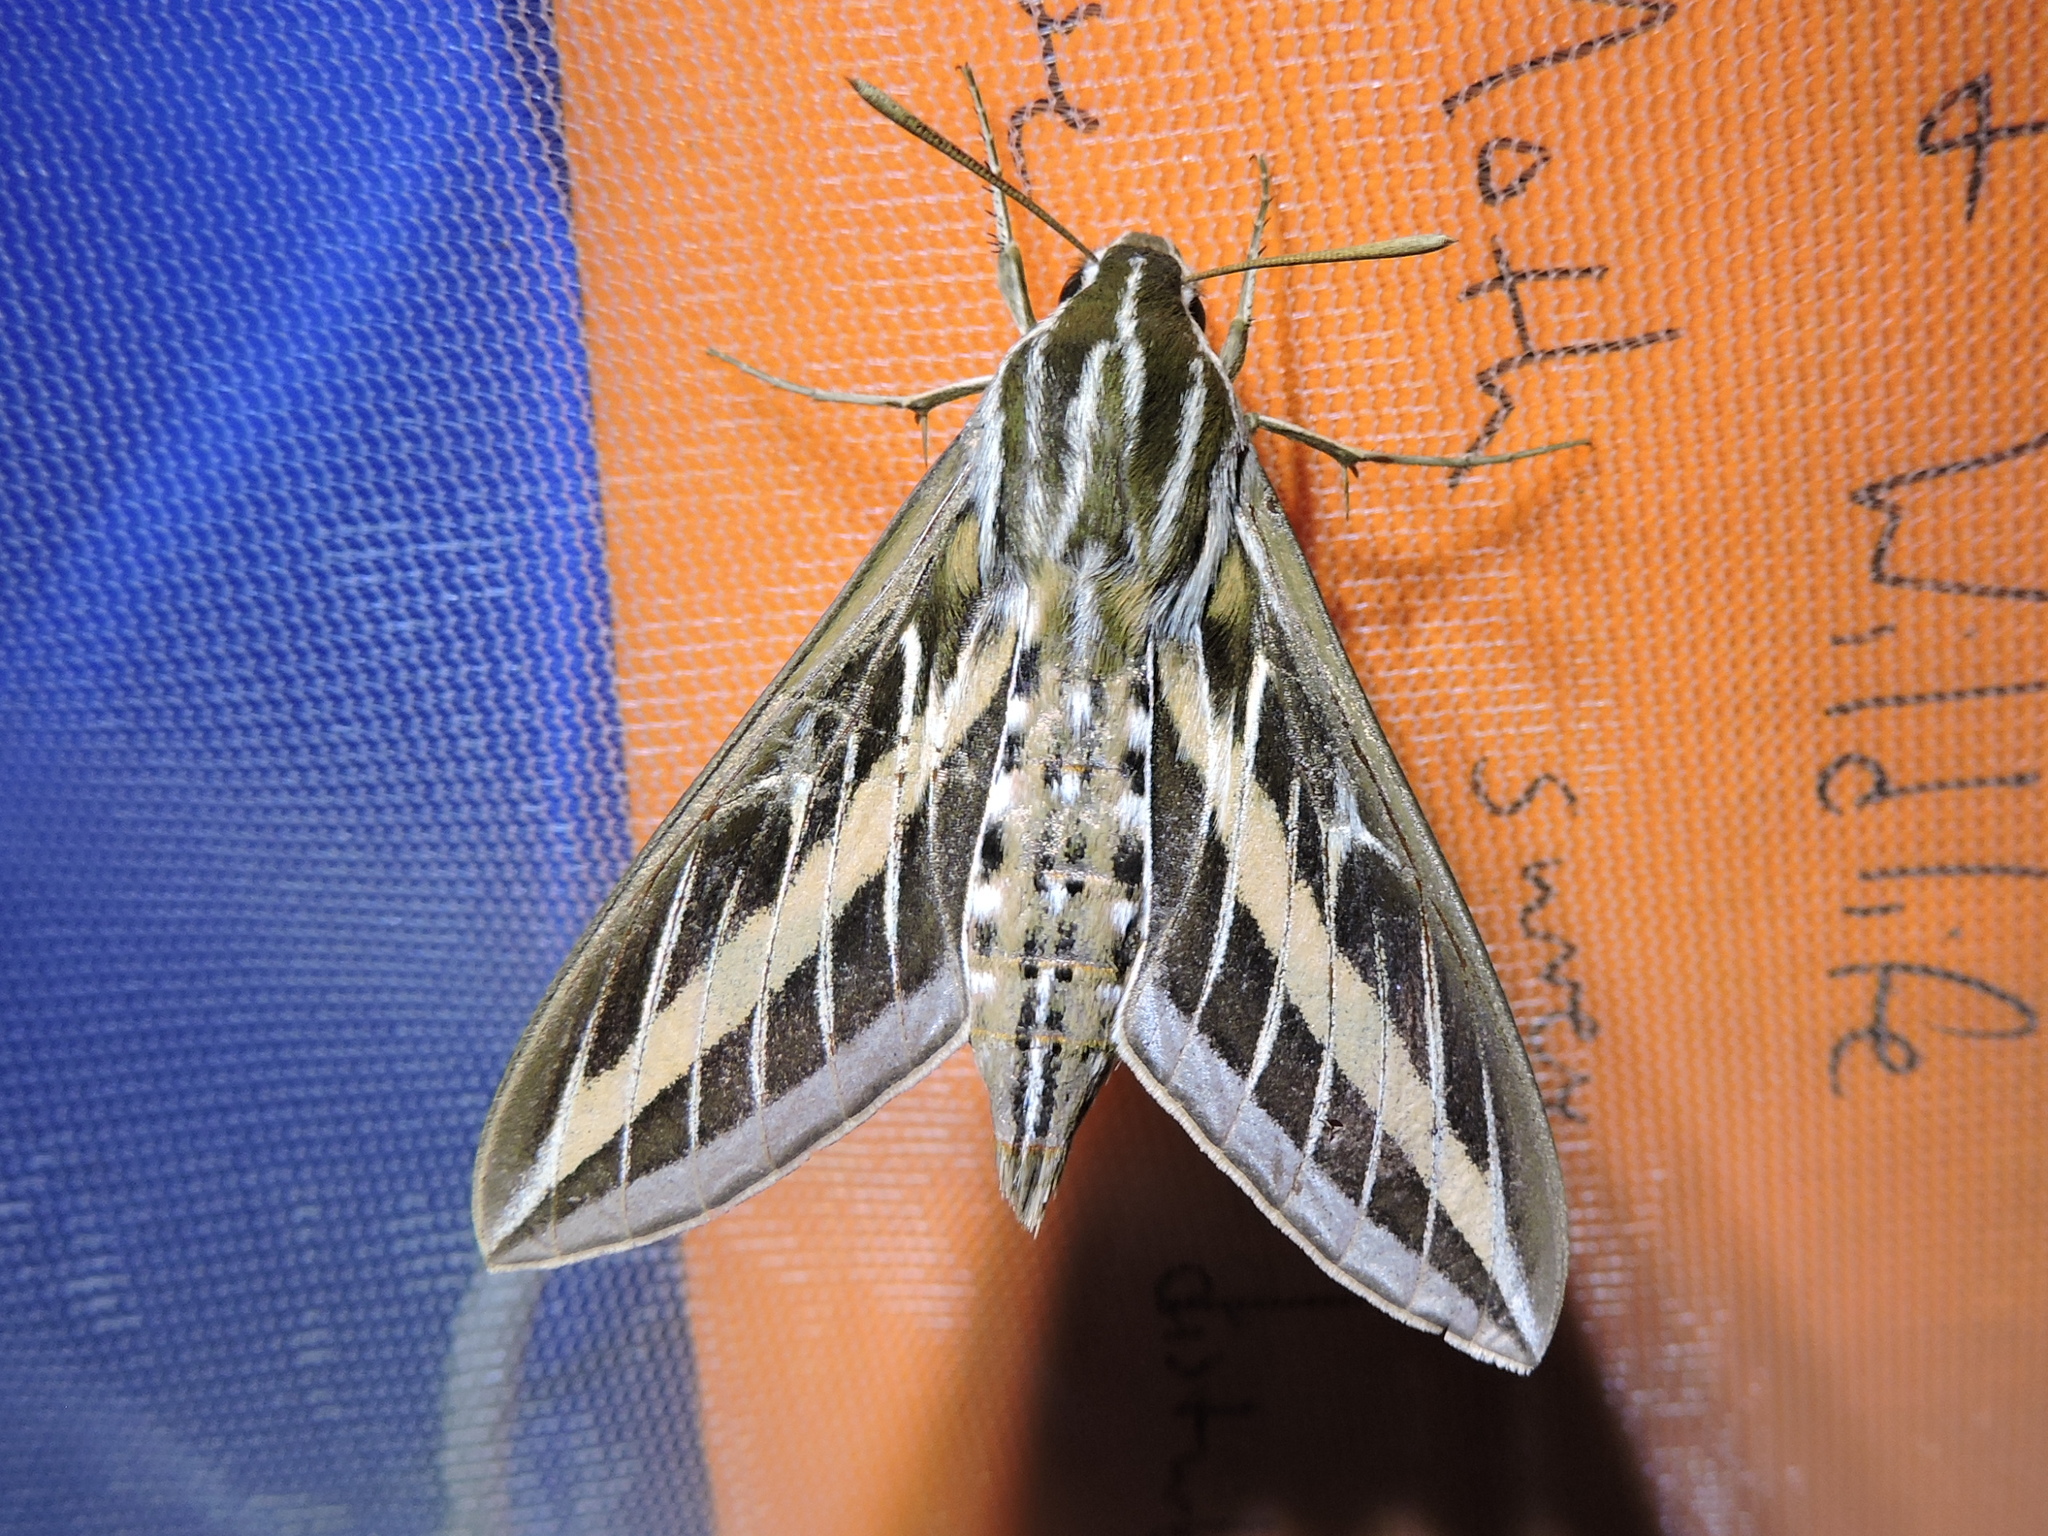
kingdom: Animalia
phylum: Arthropoda
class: Insecta
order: Lepidoptera
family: Sphingidae
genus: Hyles
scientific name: Hyles lineata
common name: White-lined sphinx
